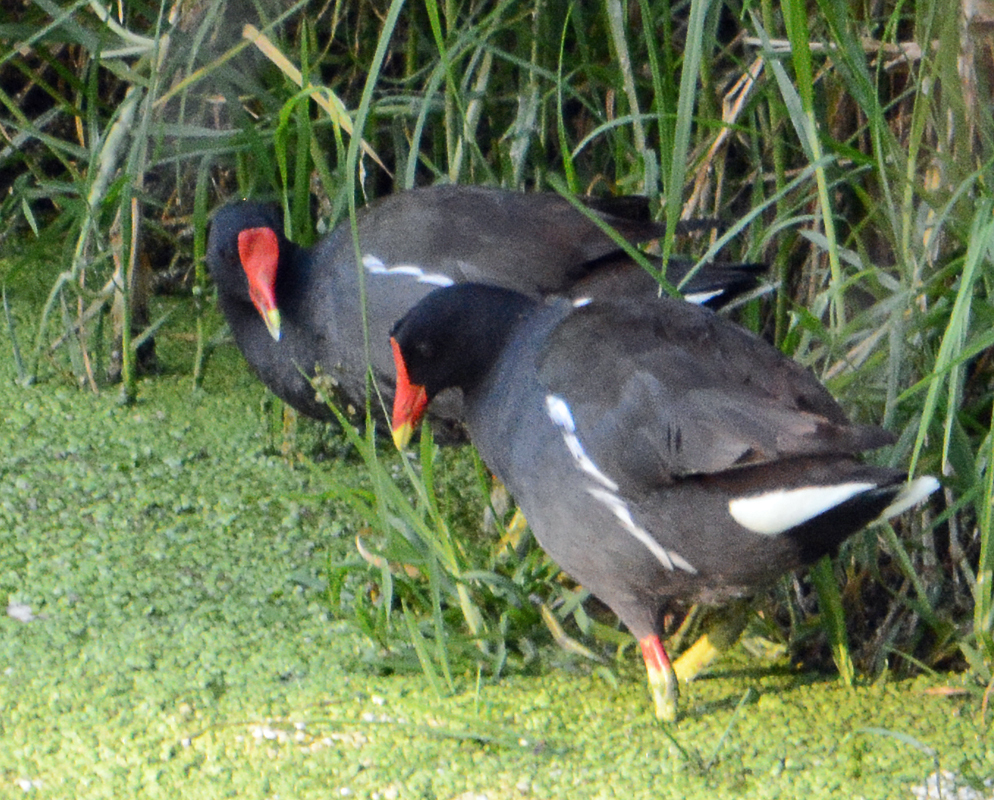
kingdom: Animalia
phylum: Chordata
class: Aves
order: Gruiformes
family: Rallidae
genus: Gallinula
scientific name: Gallinula chloropus
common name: Common moorhen
